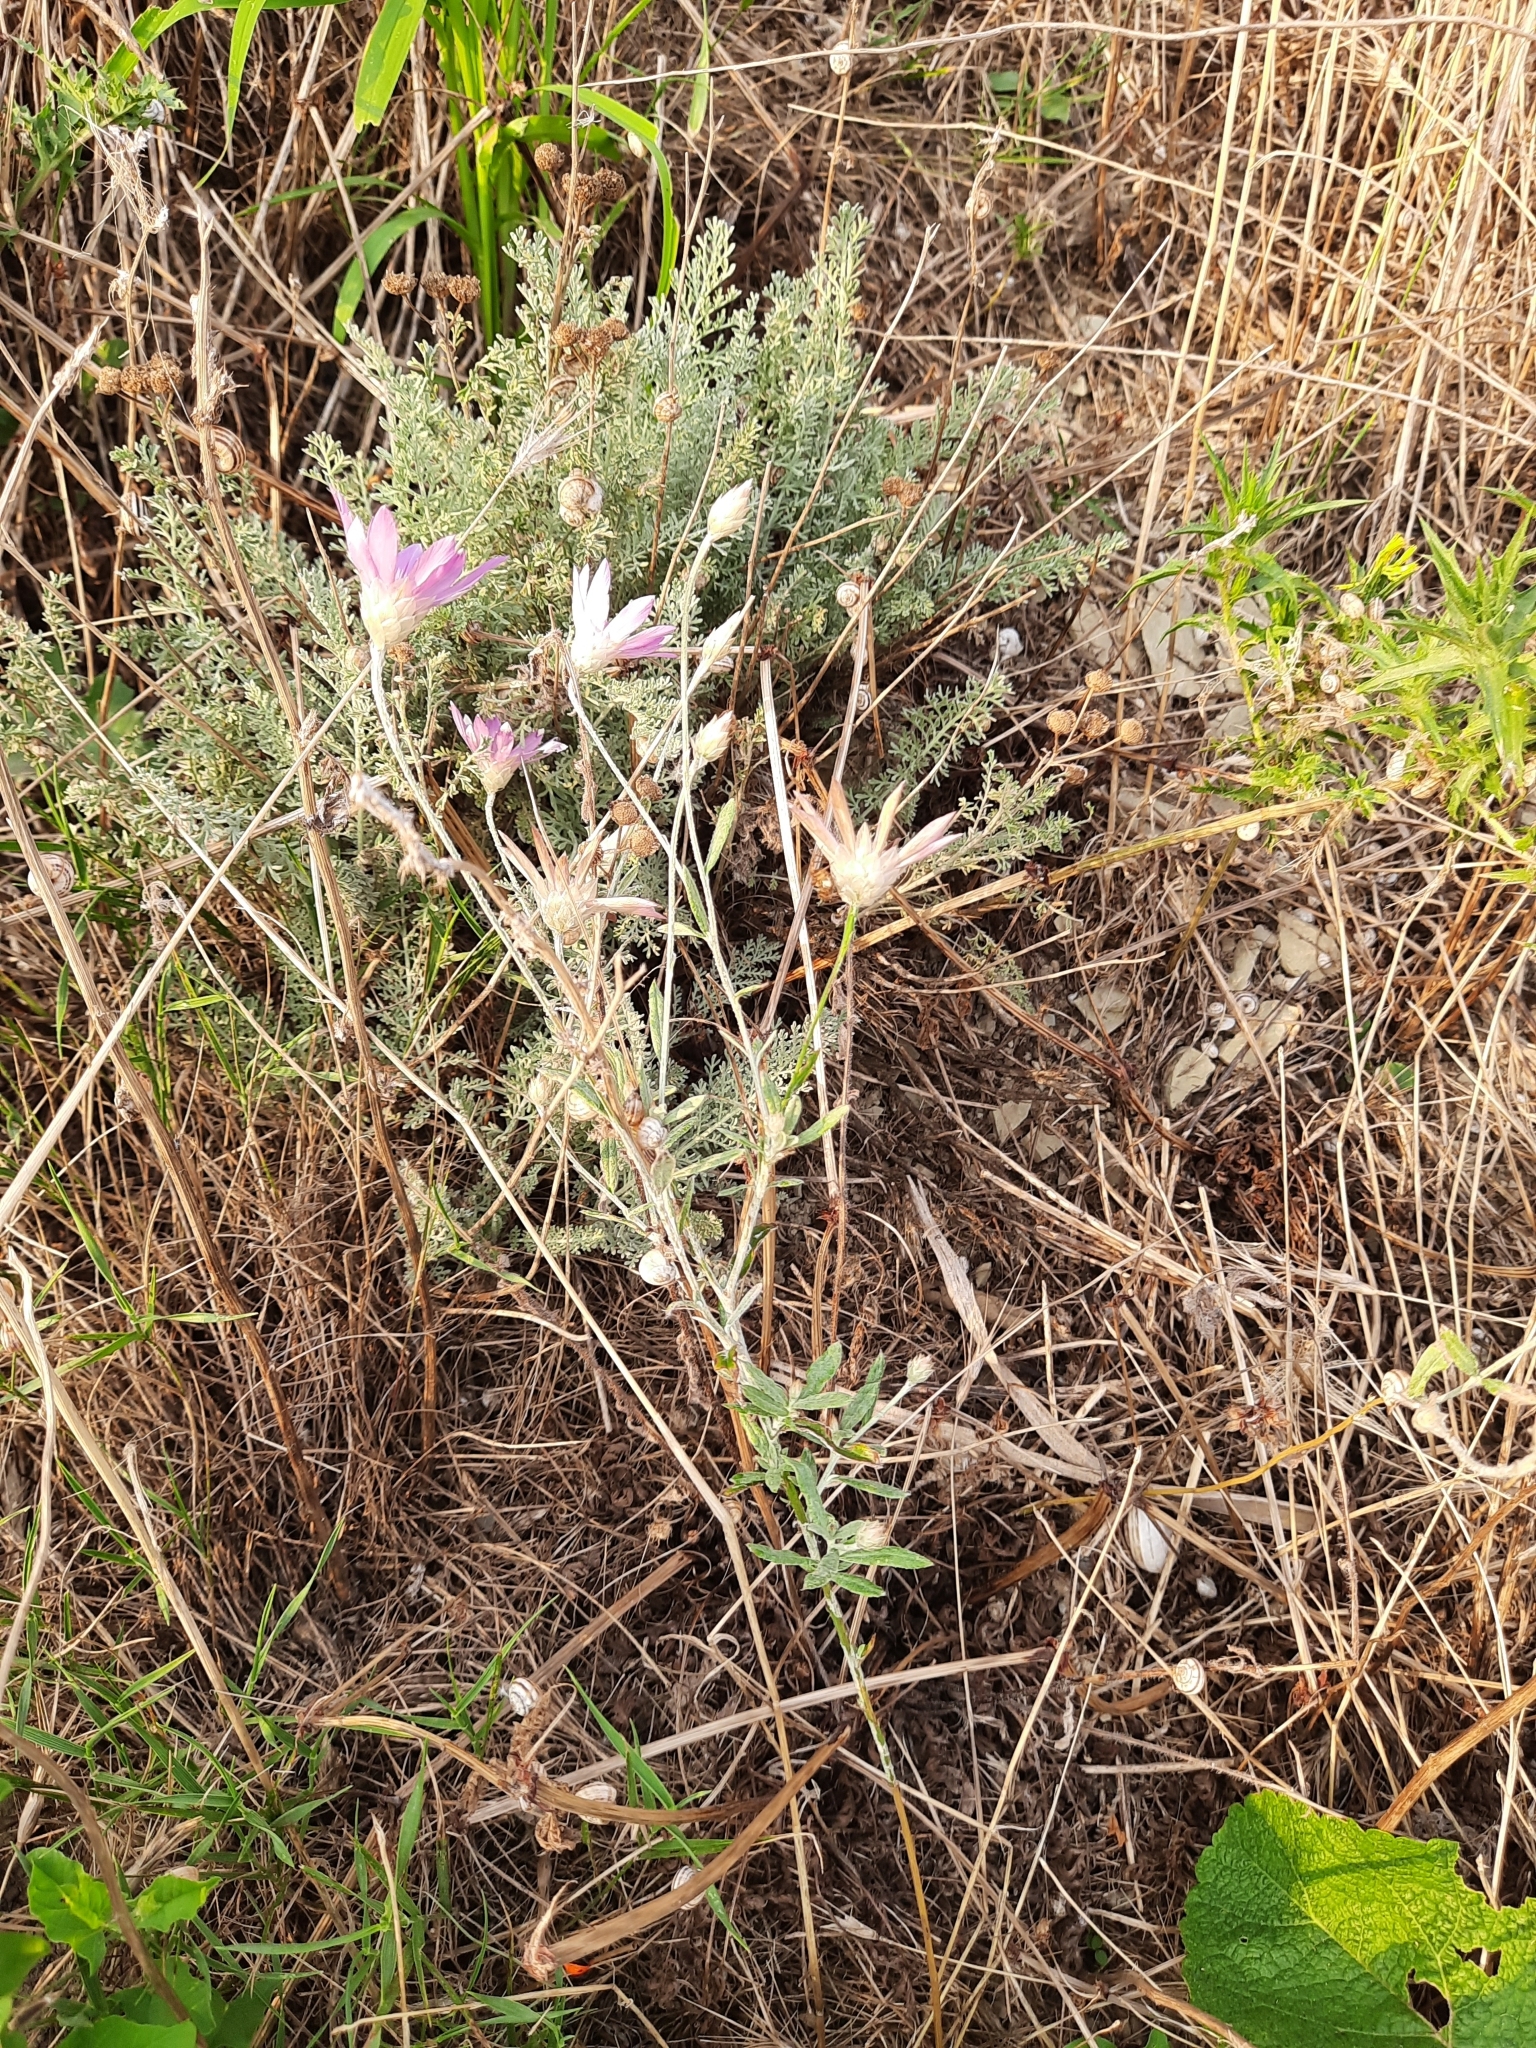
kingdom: Plantae
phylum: Tracheophyta
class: Magnoliopsida
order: Asterales
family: Asteraceae
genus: Xeranthemum
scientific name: Xeranthemum annuum
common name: Immortelle
